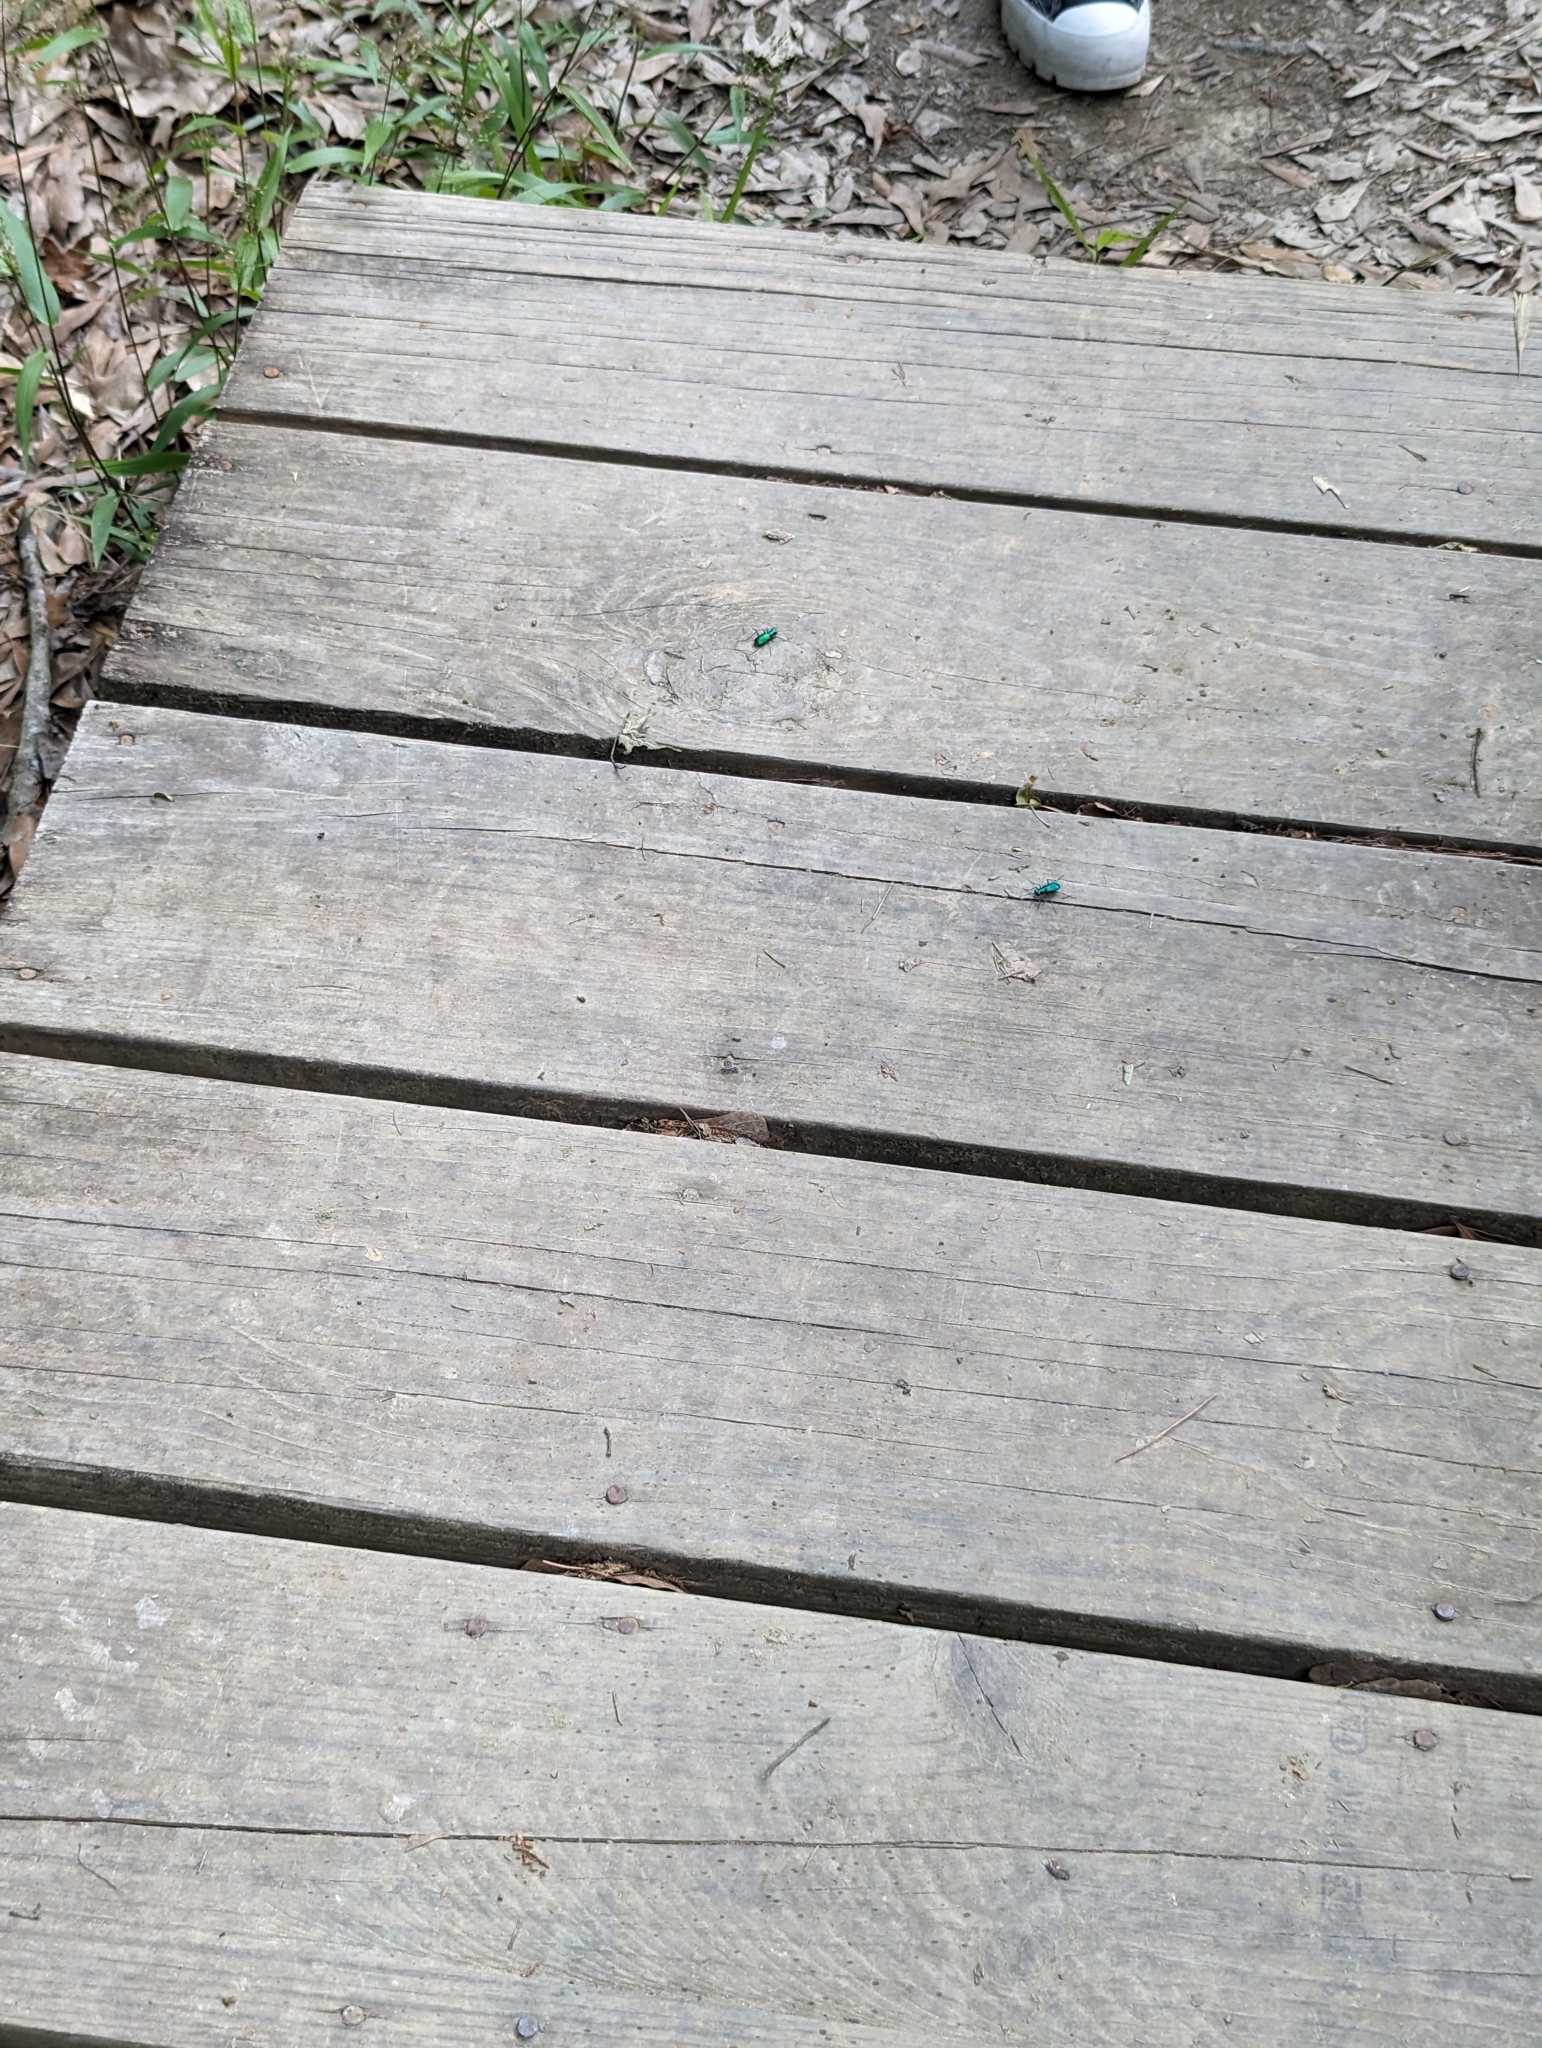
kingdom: Animalia
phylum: Arthropoda
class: Insecta
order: Coleoptera
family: Carabidae
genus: Cicindela
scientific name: Cicindela sexguttata
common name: Six-spotted tiger beetle
